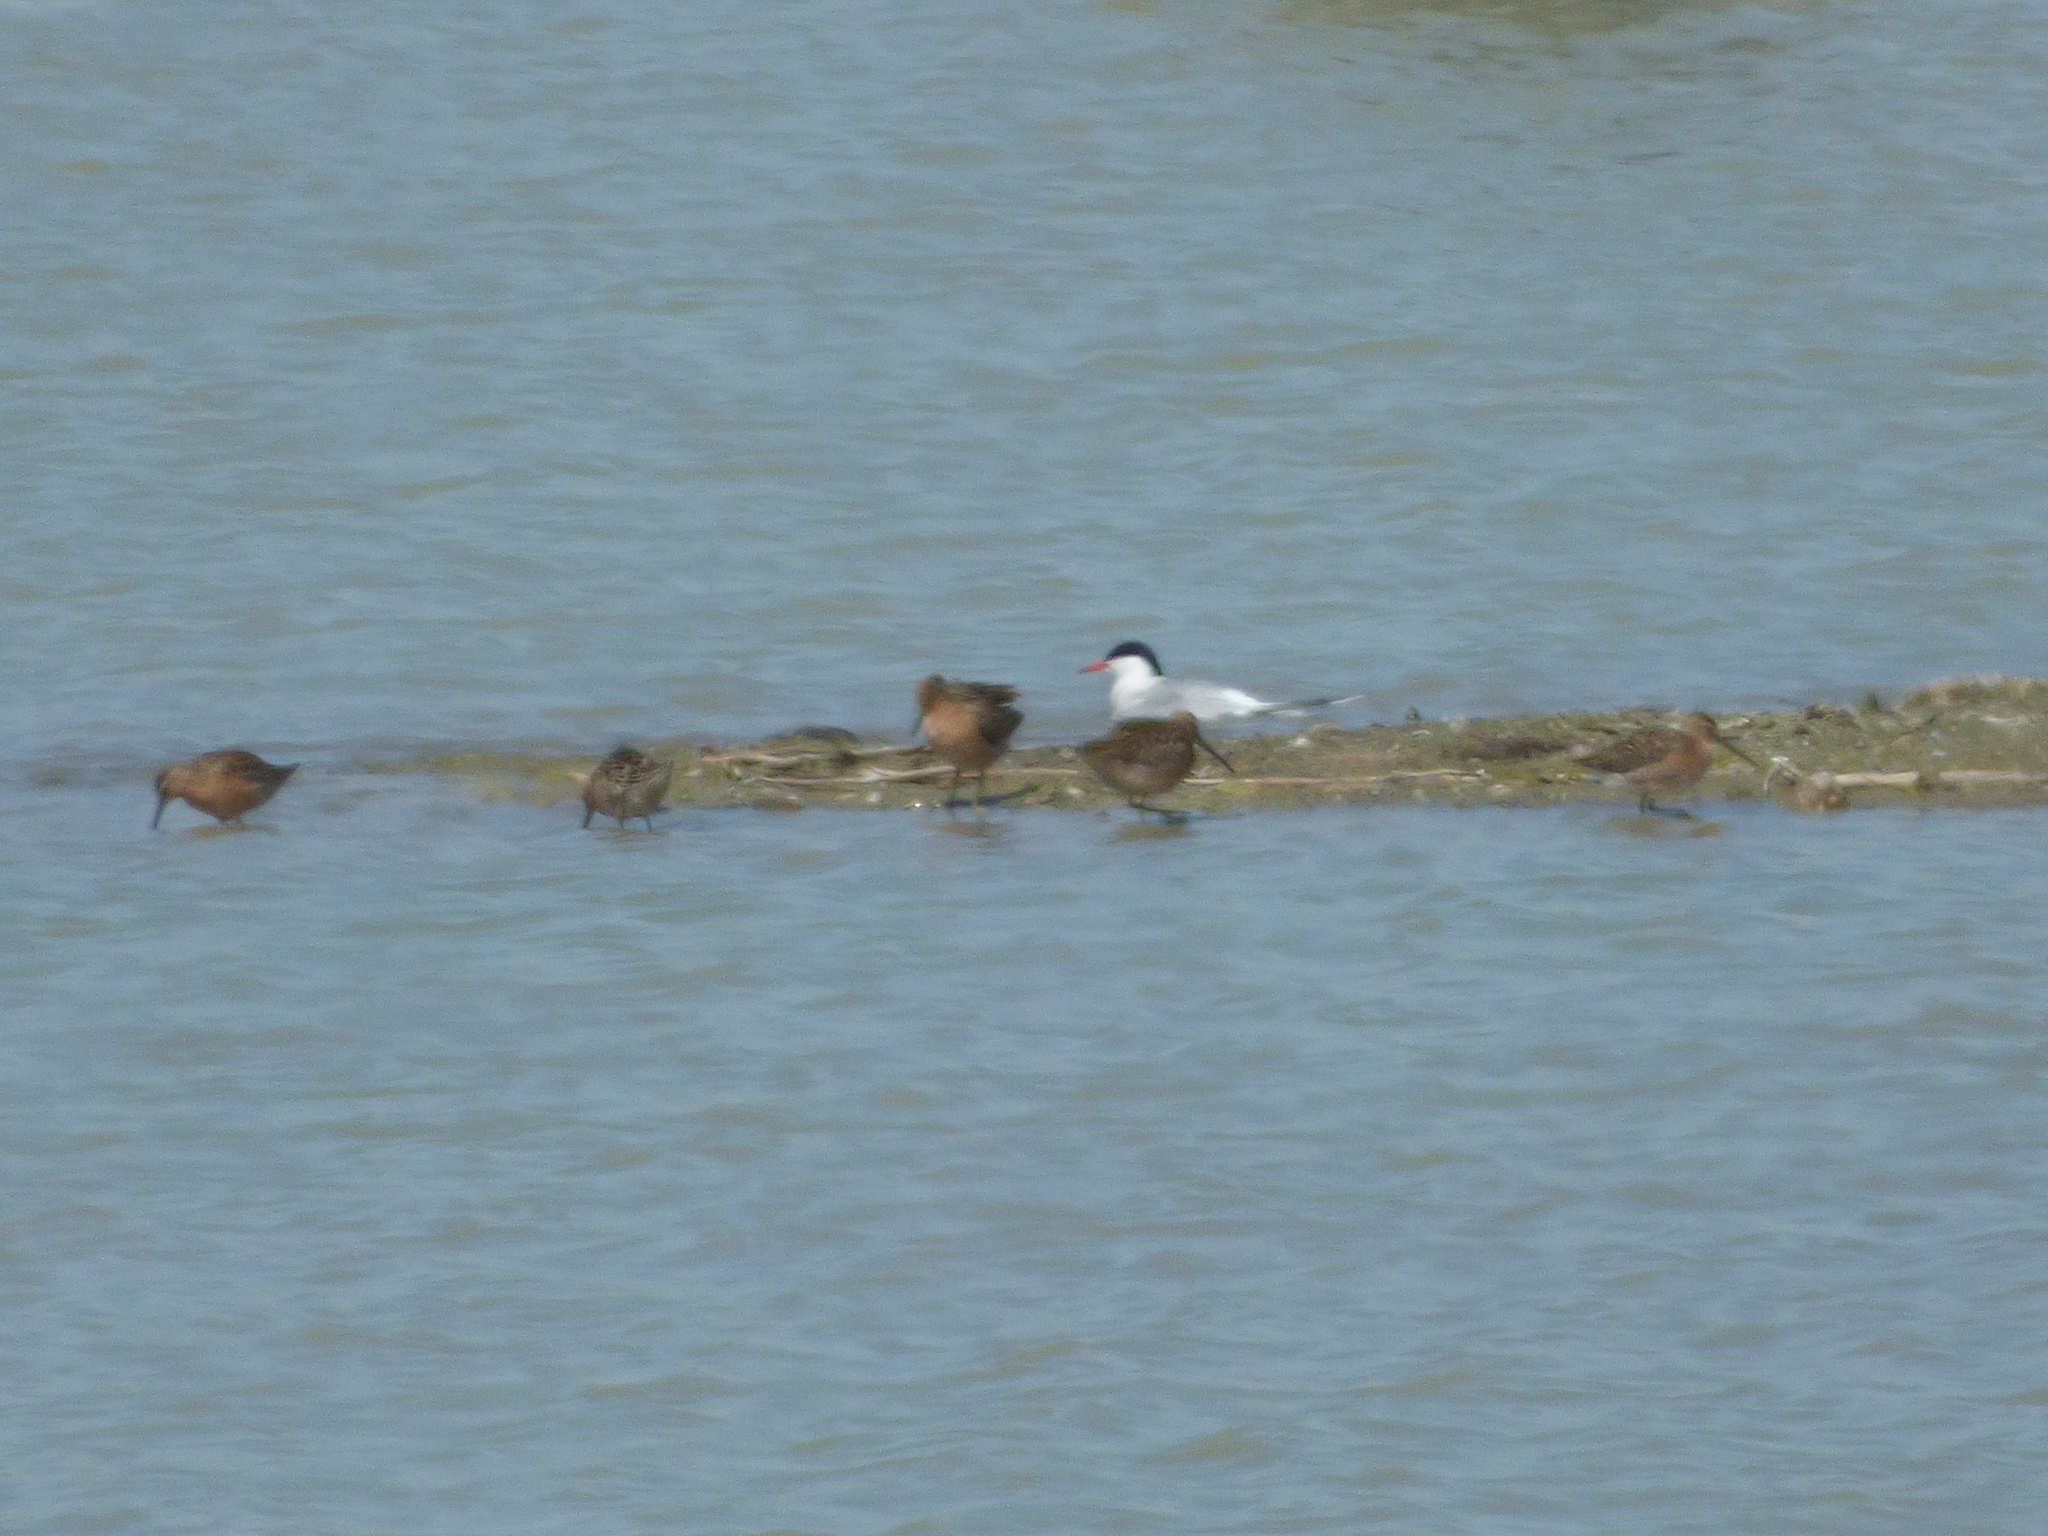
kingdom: Animalia
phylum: Chordata
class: Aves
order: Charadriiformes
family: Scolopacidae
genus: Limnodromus
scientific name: Limnodromus griseus
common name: Short-billed dowitcher
